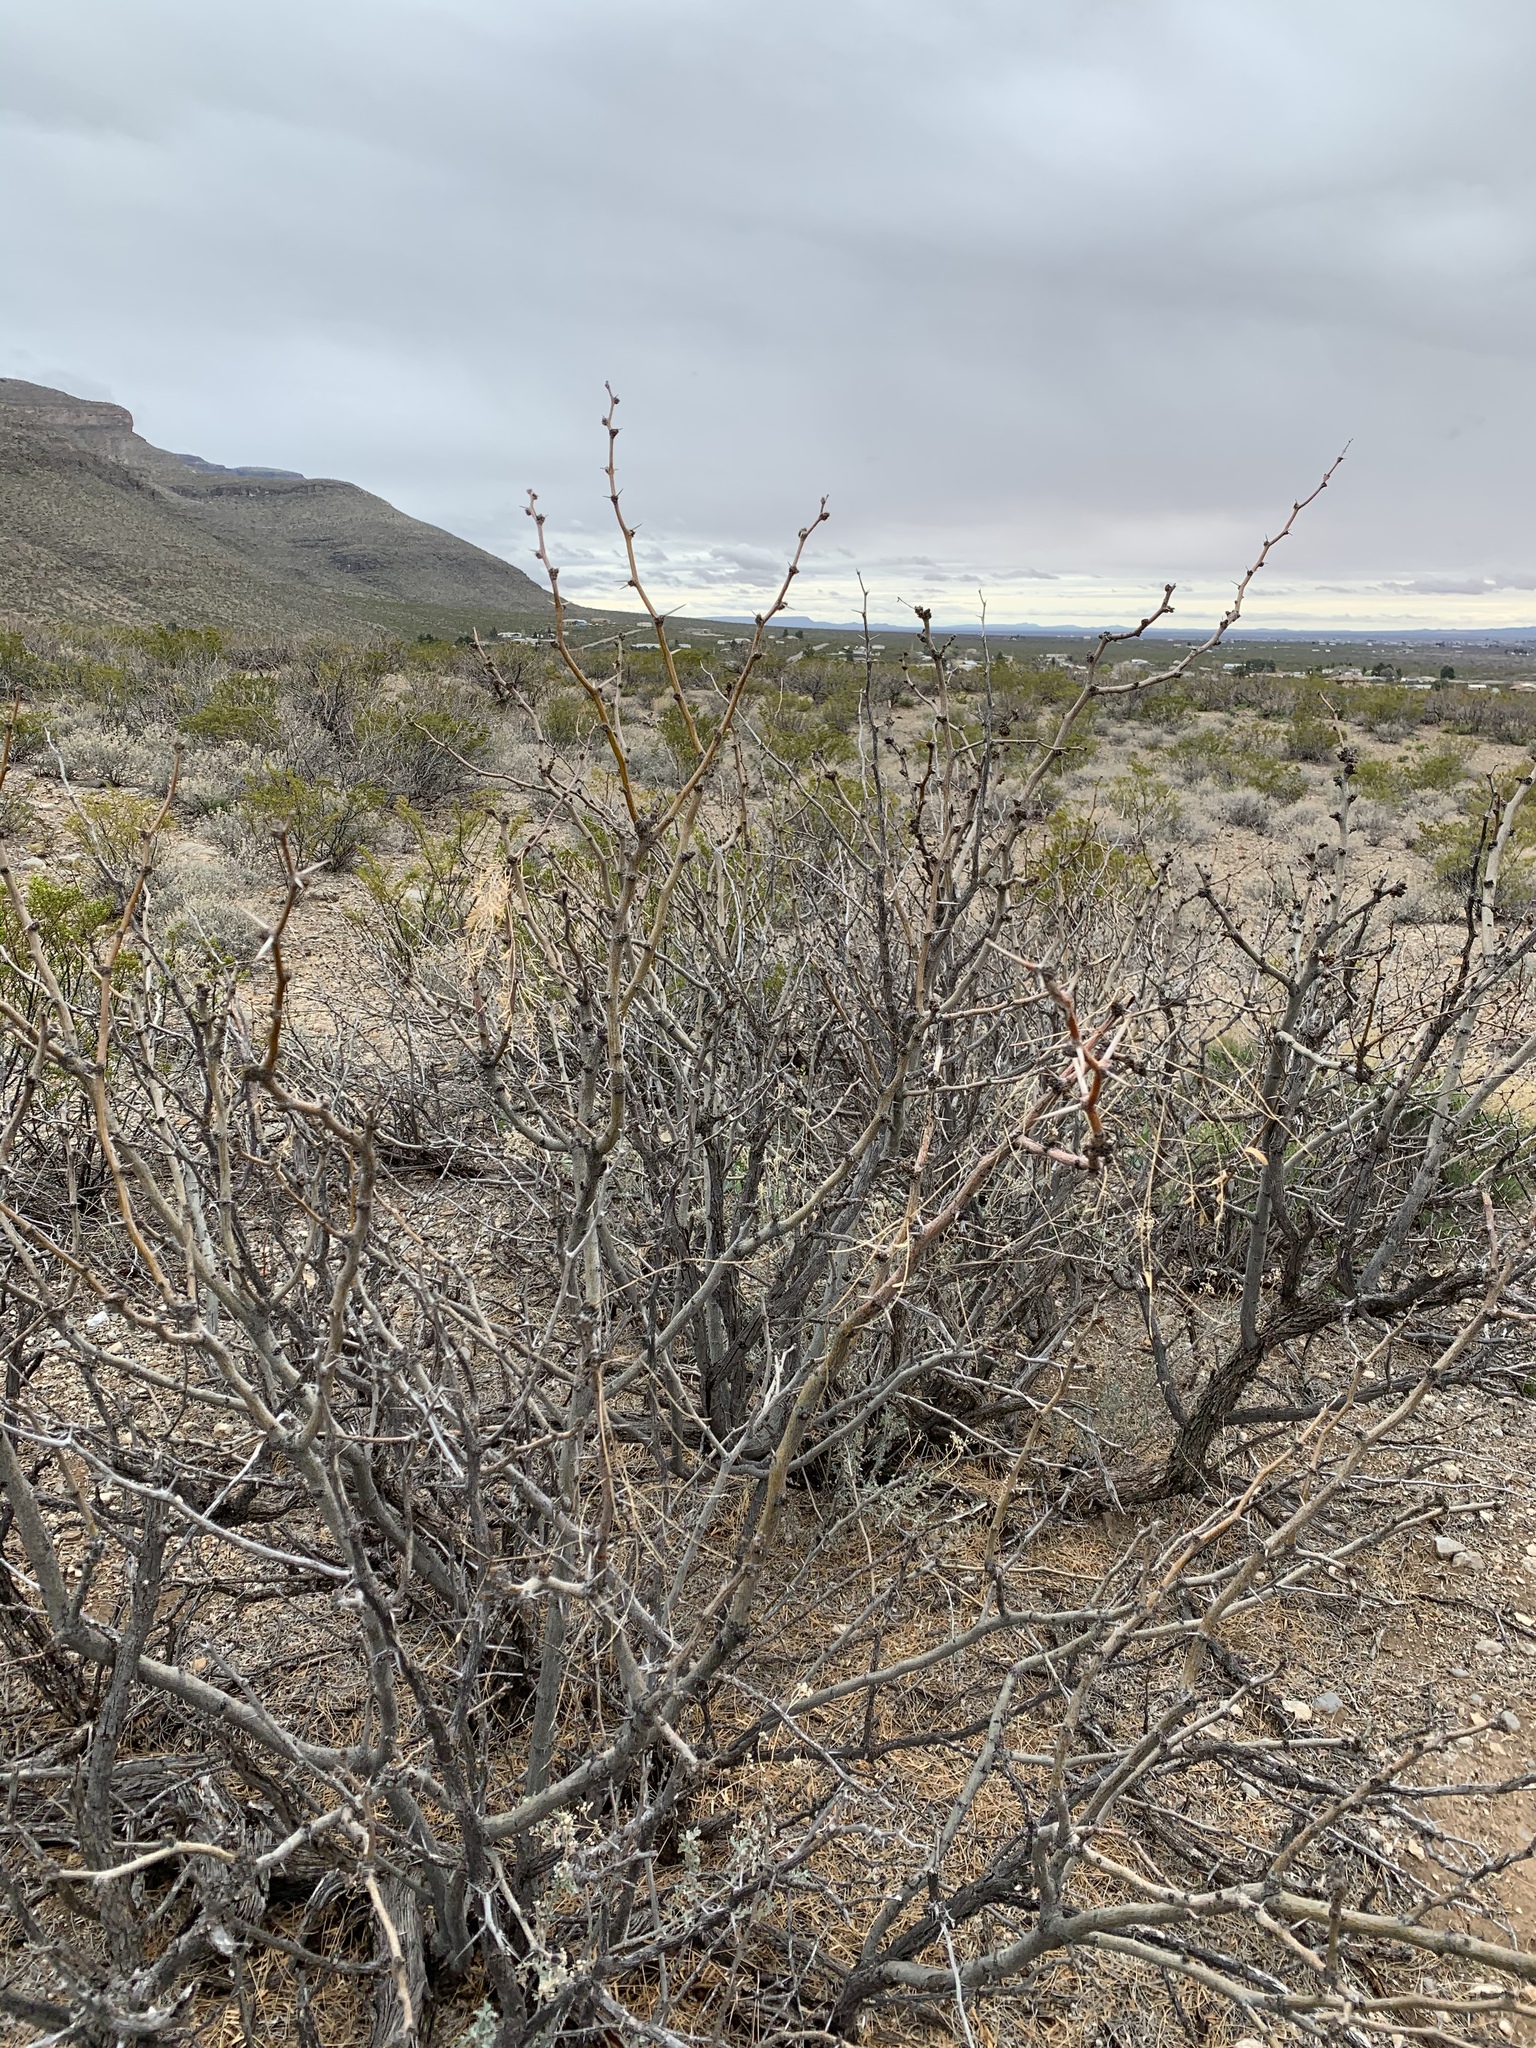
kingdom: Plantae
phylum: Tracheophyta
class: Magnoliopsida
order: Fabales
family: Fabaceae
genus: Prosopis
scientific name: Prosopis glandulosa
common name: Honey mesquite
